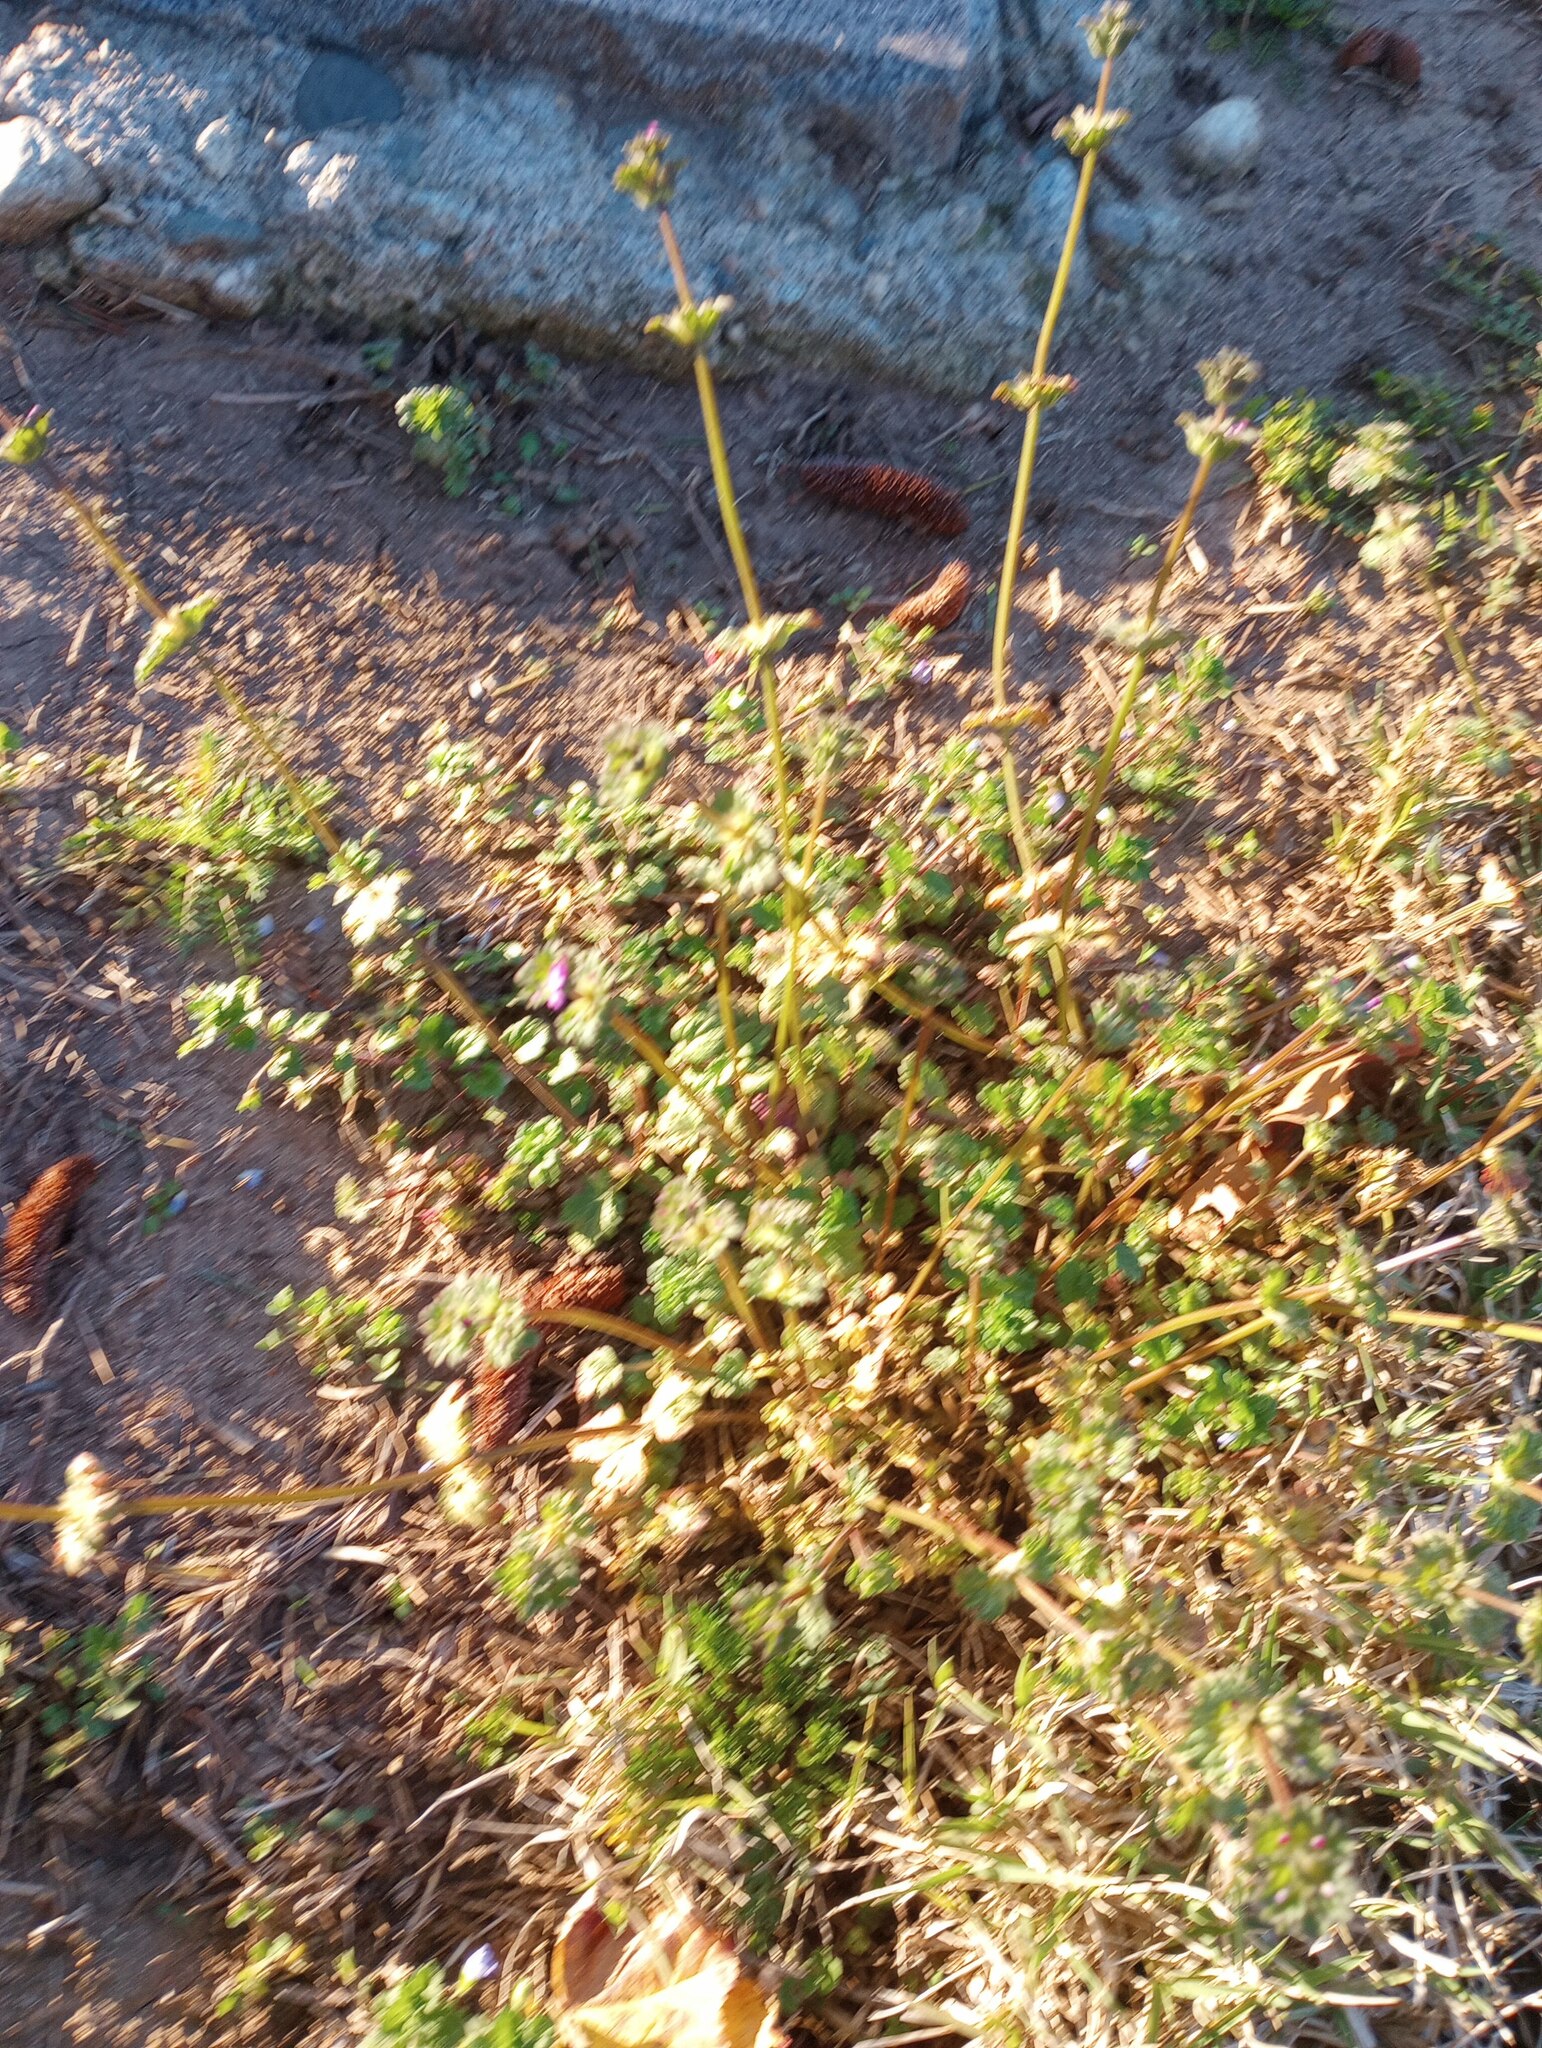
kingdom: Plantae
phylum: Tracheophyta
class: Magnoliopsida
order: Lamiales
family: Lamiaceae
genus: Lamium
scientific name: Lamium amplexicaule
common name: Henbit dead-nettle
